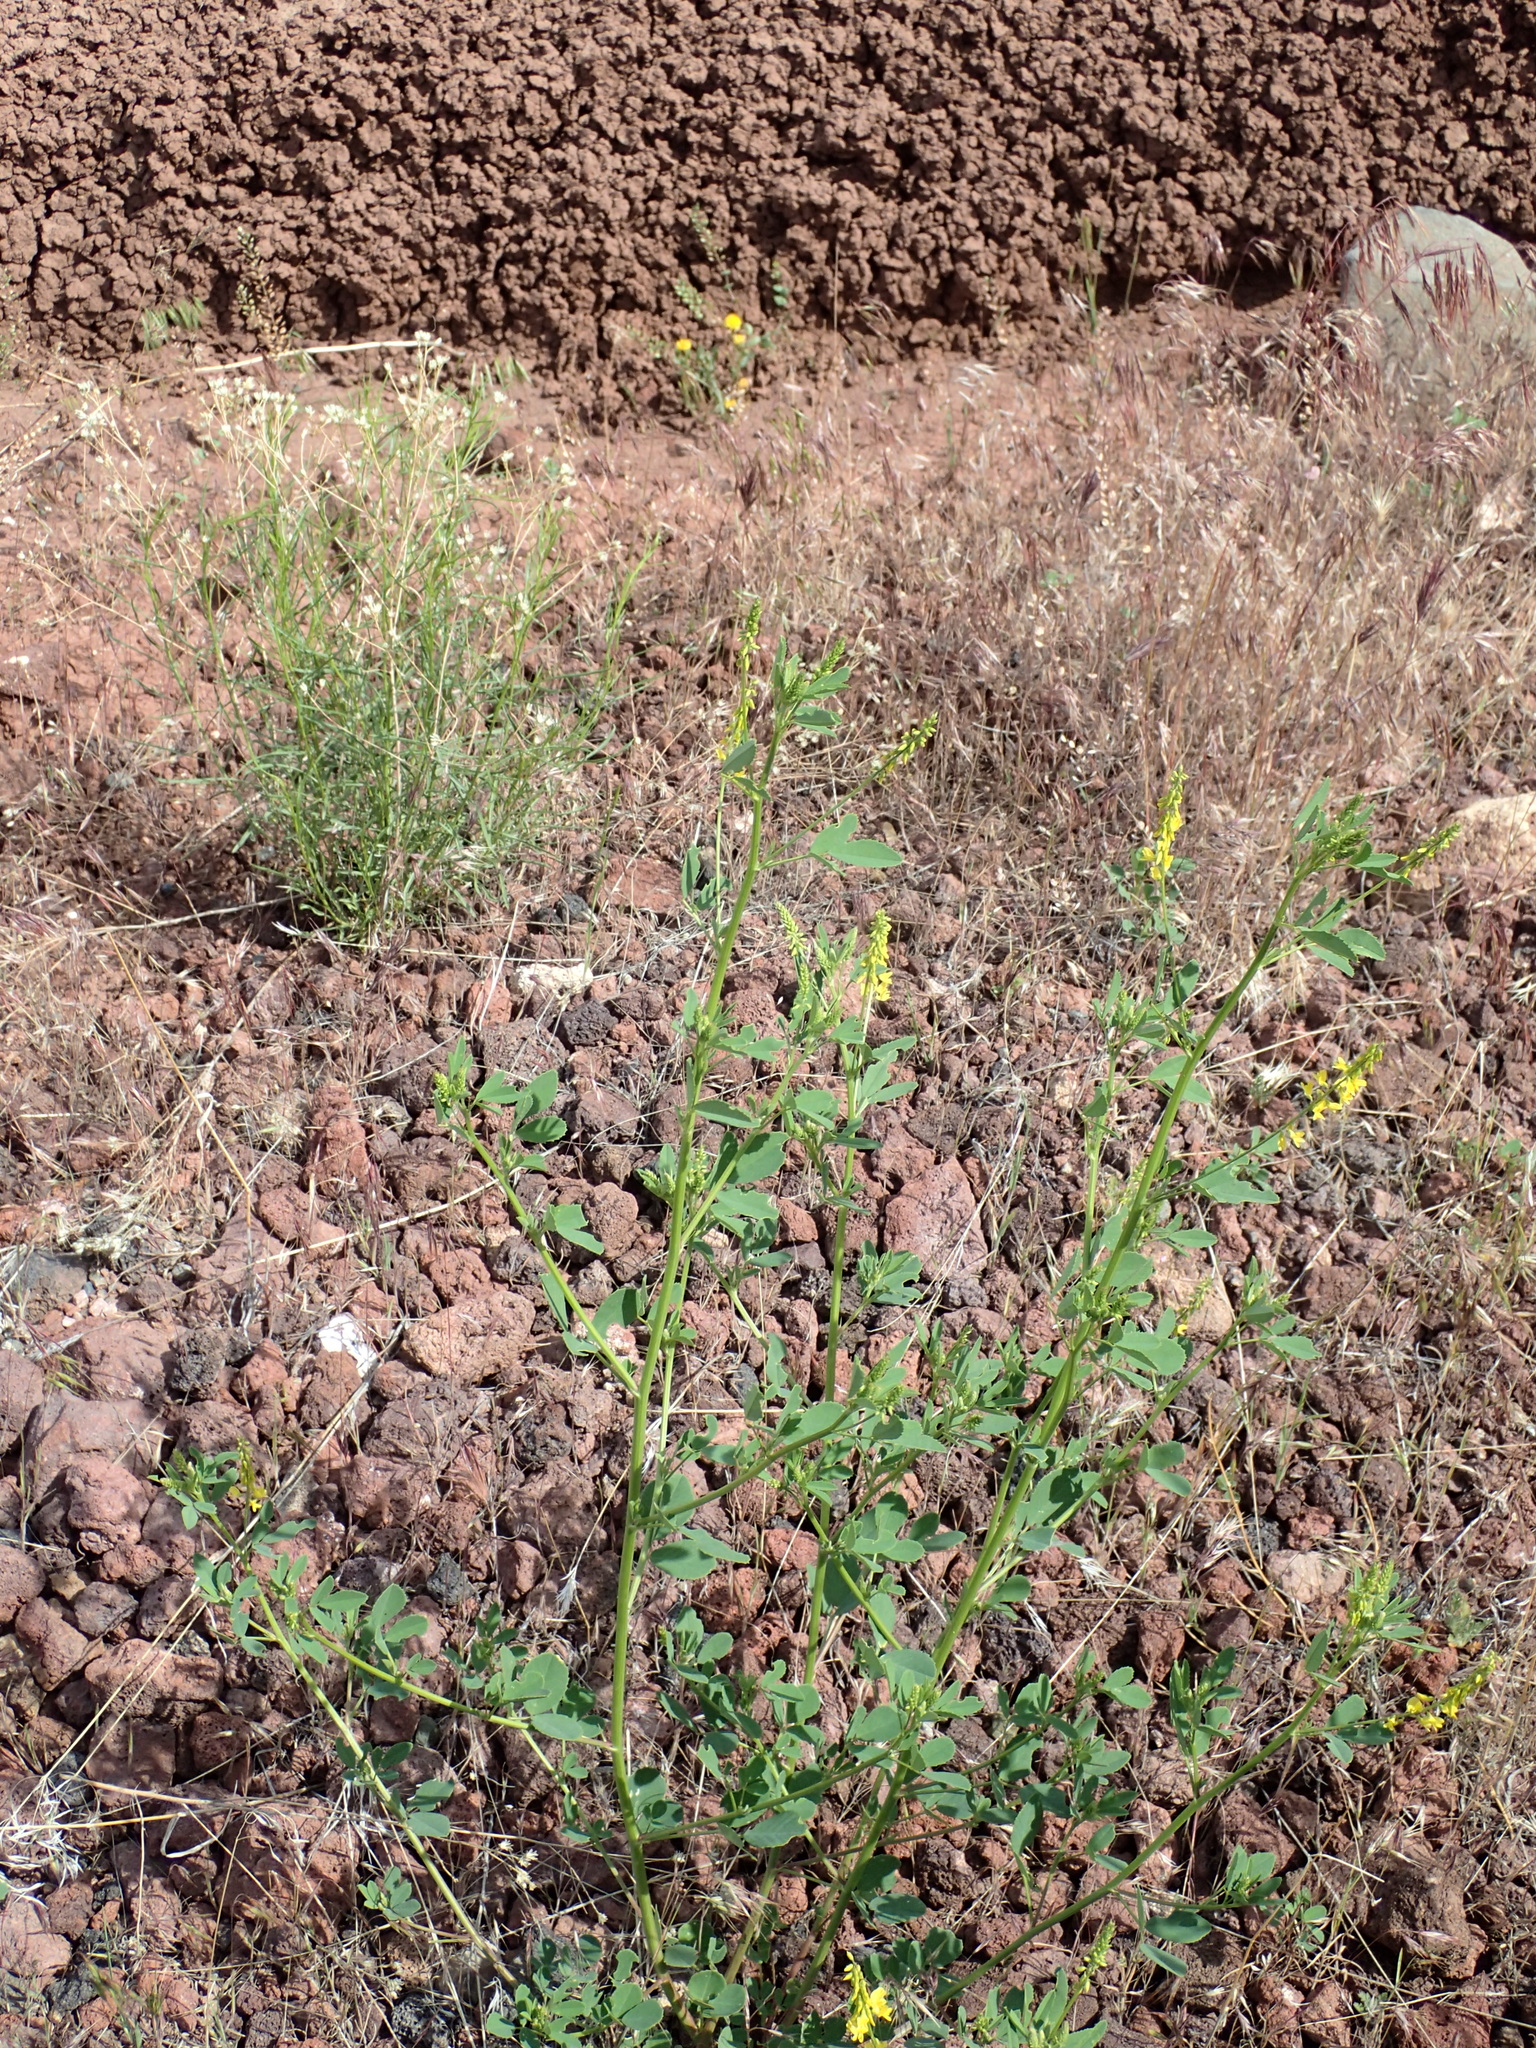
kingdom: Plantae
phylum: Tracheophyta
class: Magnoliopsida
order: Fabales
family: Fabaceae
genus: Melilotus
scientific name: Melilotus officinalis
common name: Sweetclover
